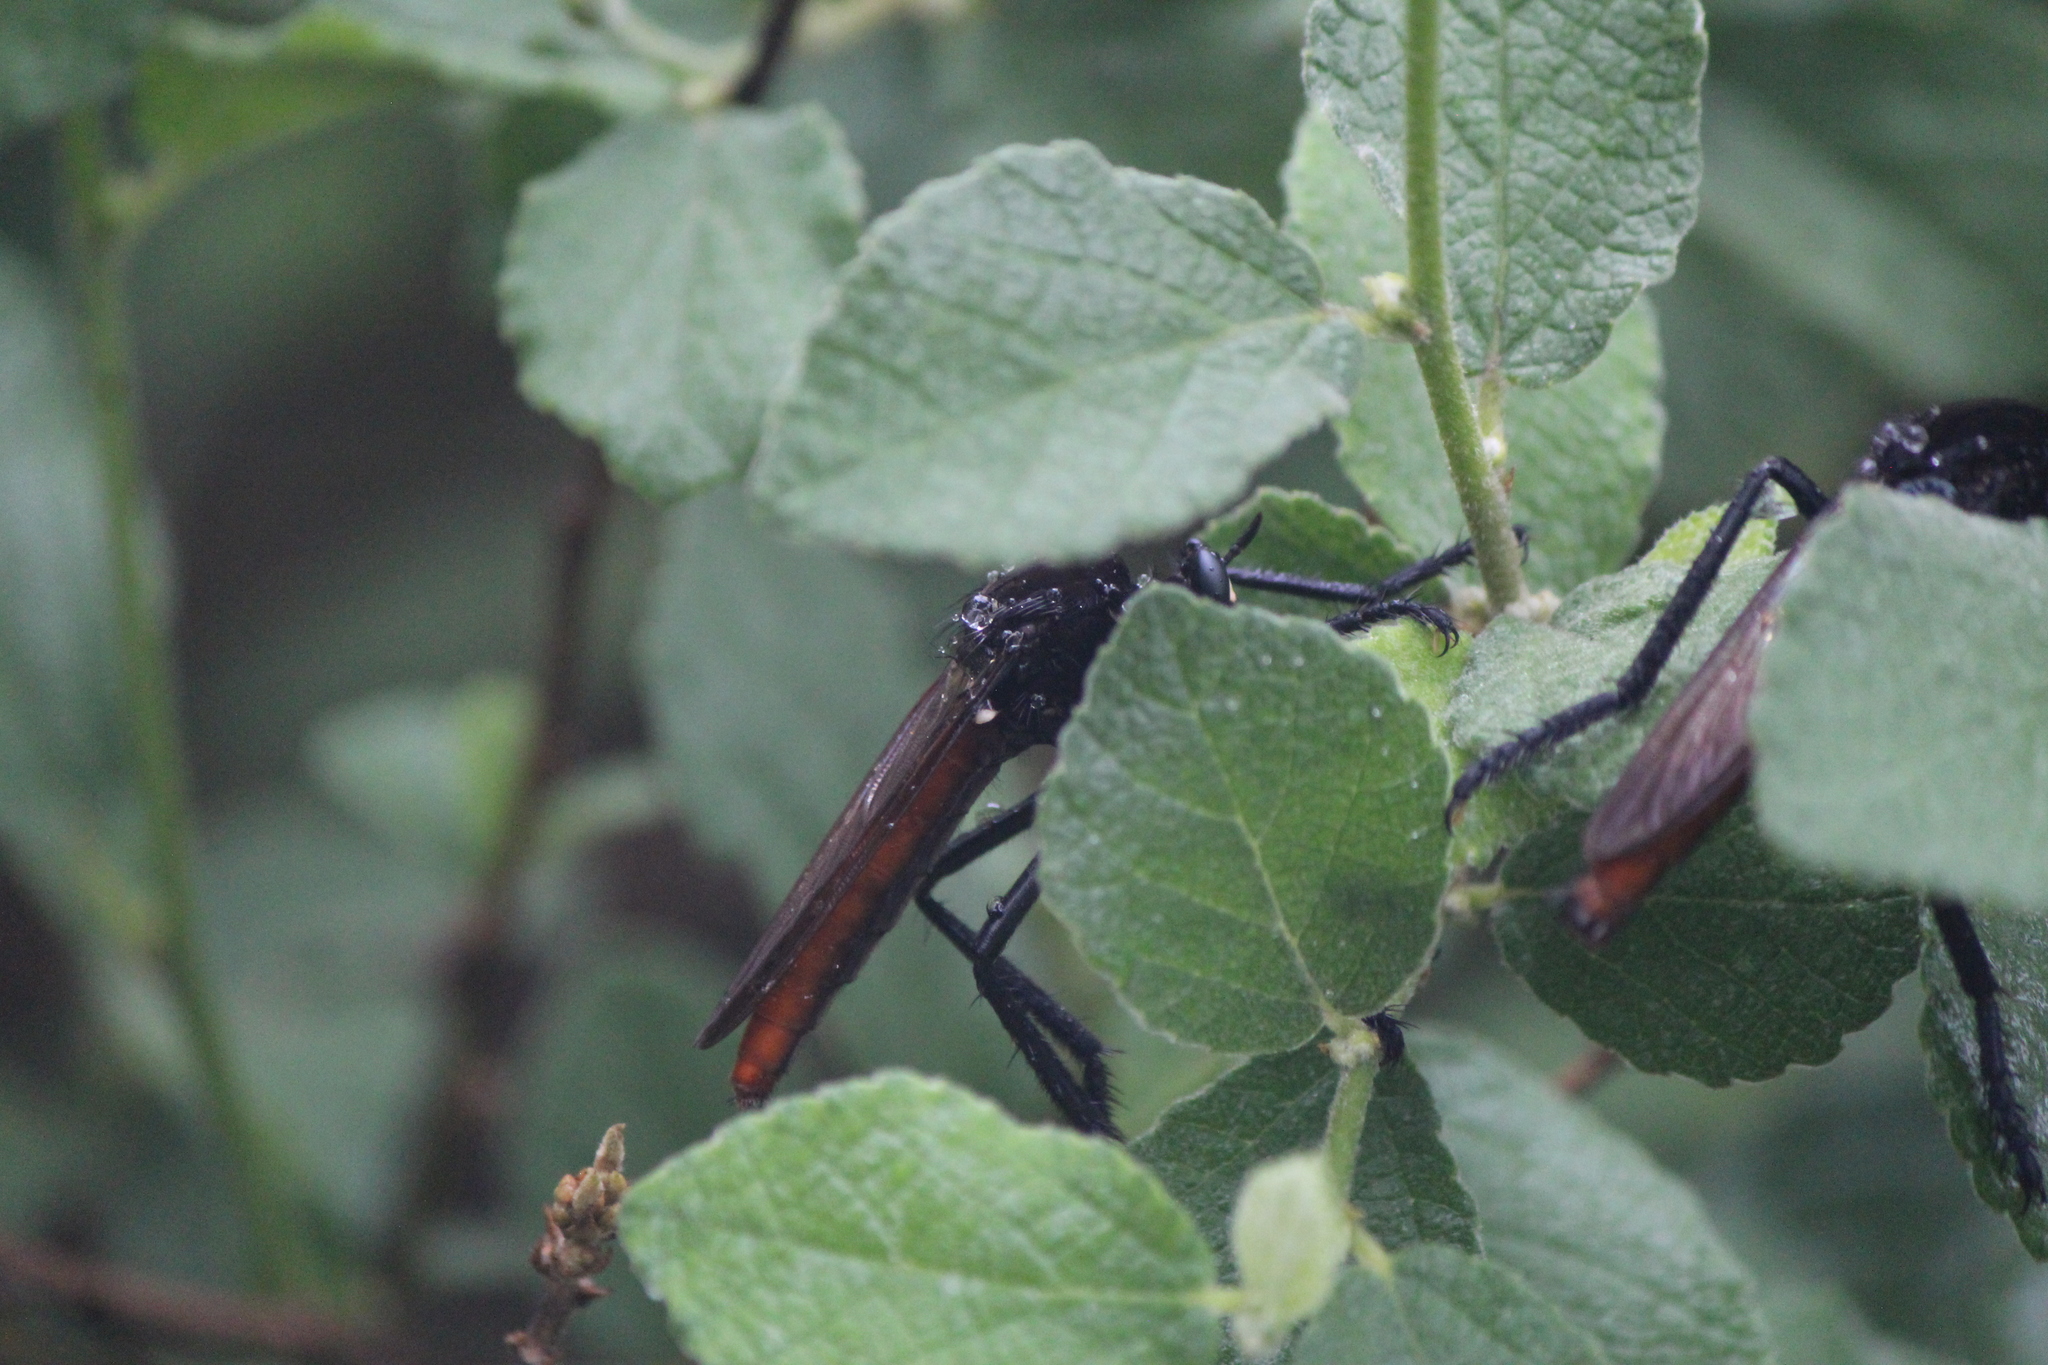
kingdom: Animalia
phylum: Arthropoda
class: Insecta
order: Diptera
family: Asilidae
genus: Archilestris
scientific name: Archilestris magnificus
